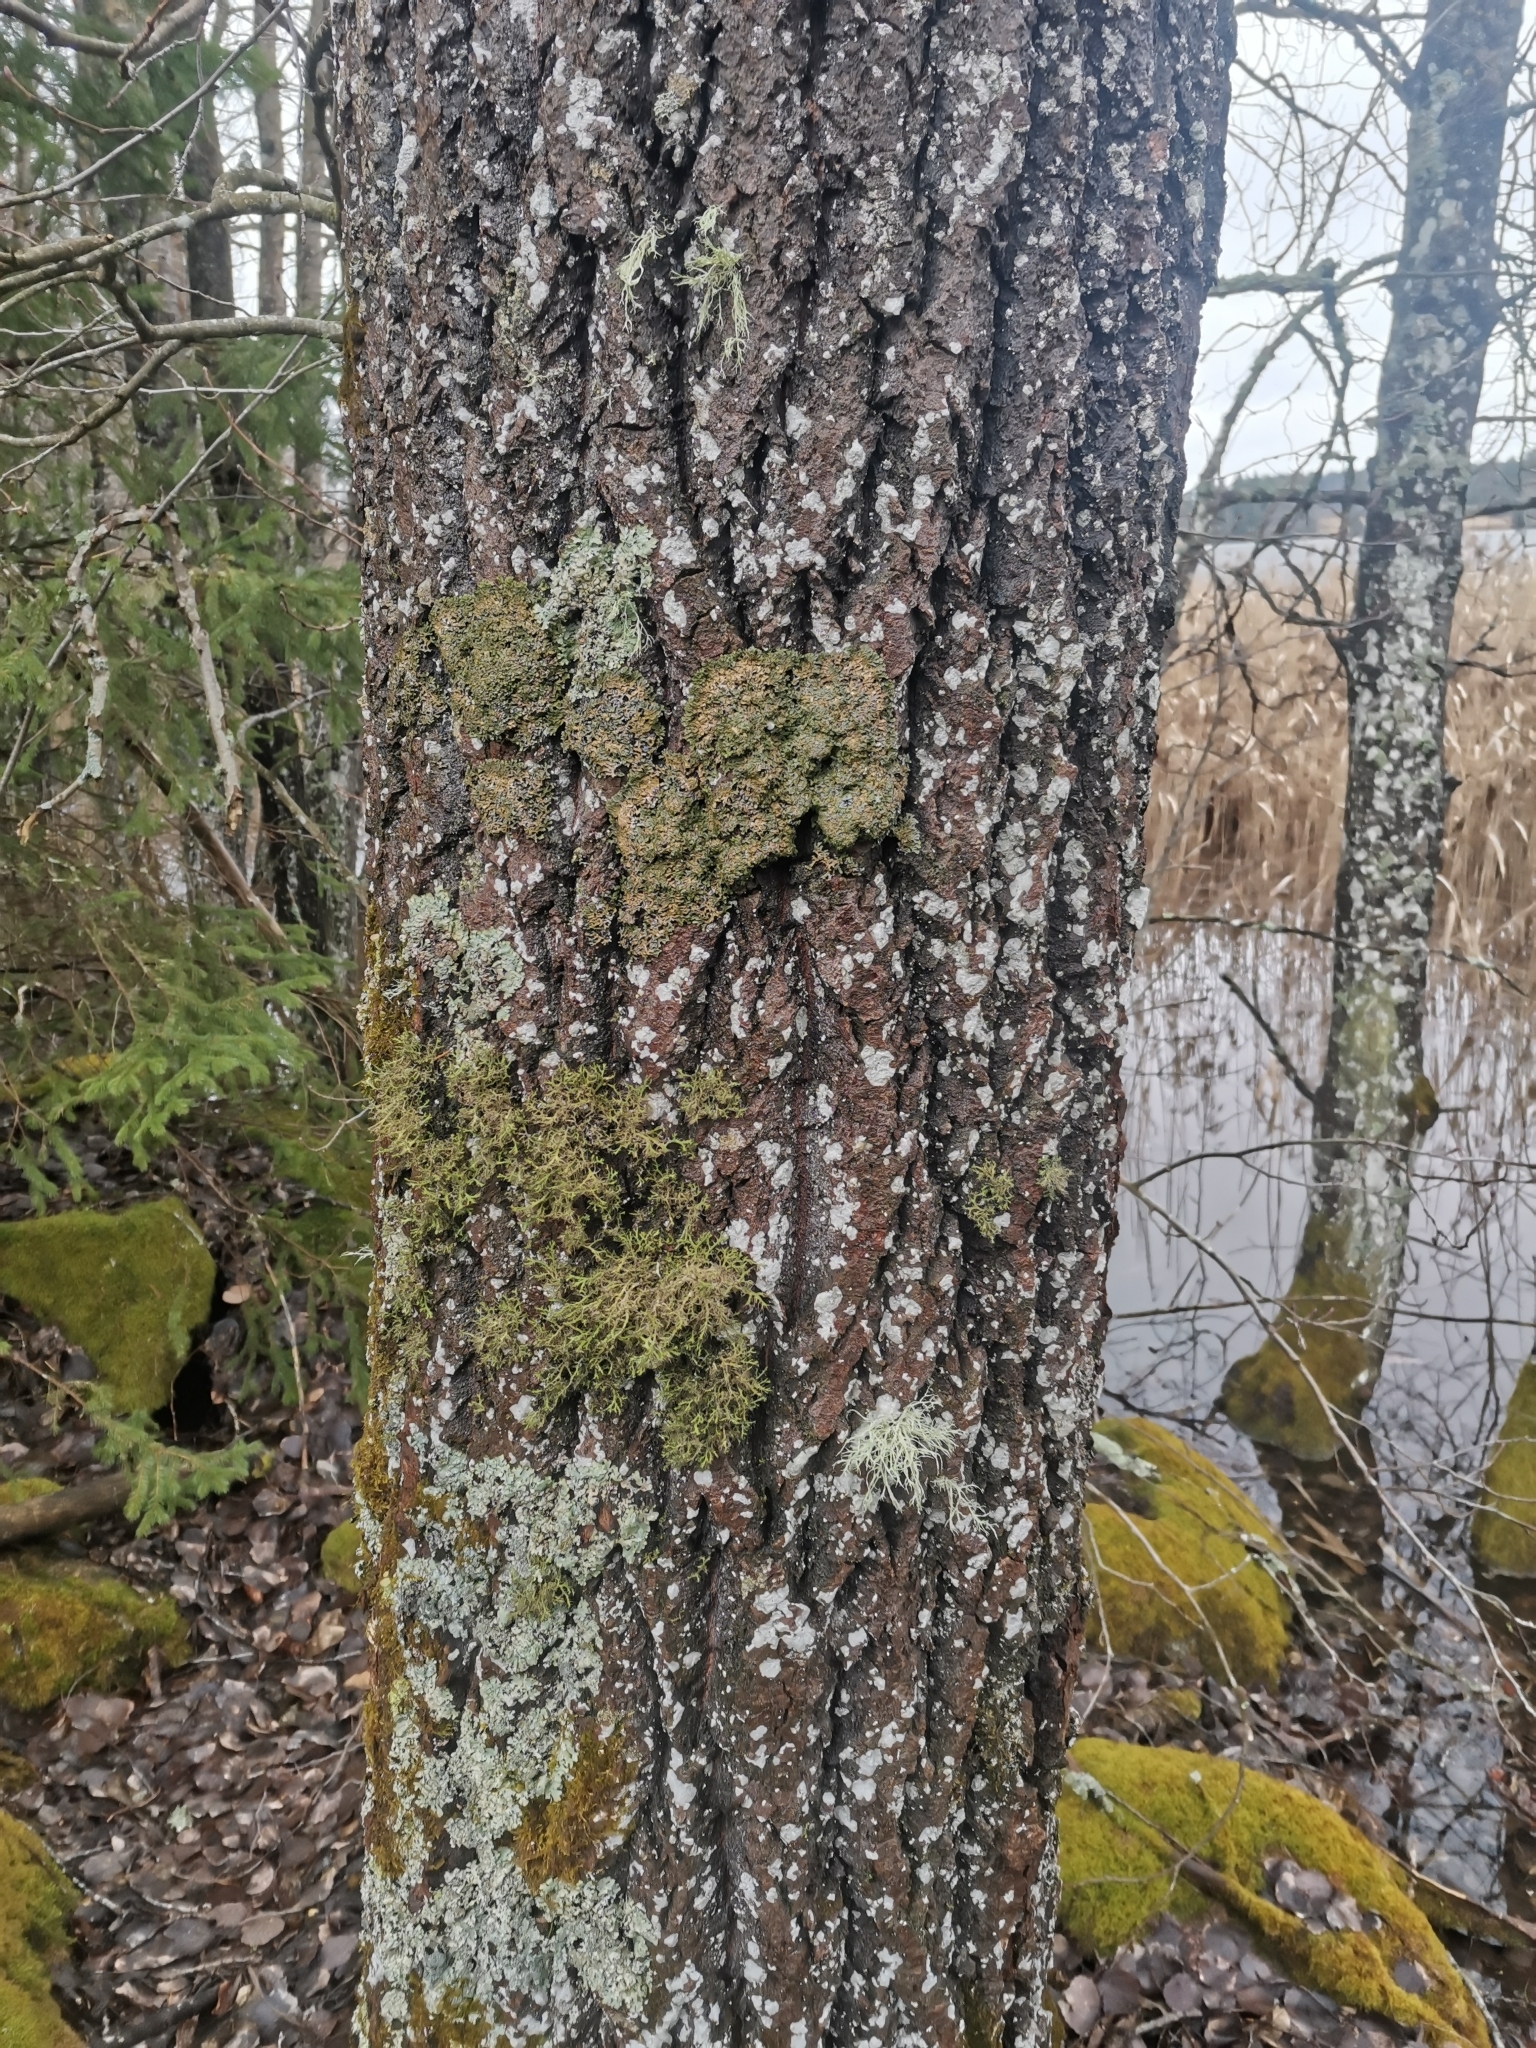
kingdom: Fungi
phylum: Ascomycota
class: Lecanoromycetes
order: Caliciales
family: Physciaceae
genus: Physconia
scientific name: Physconia distorta
